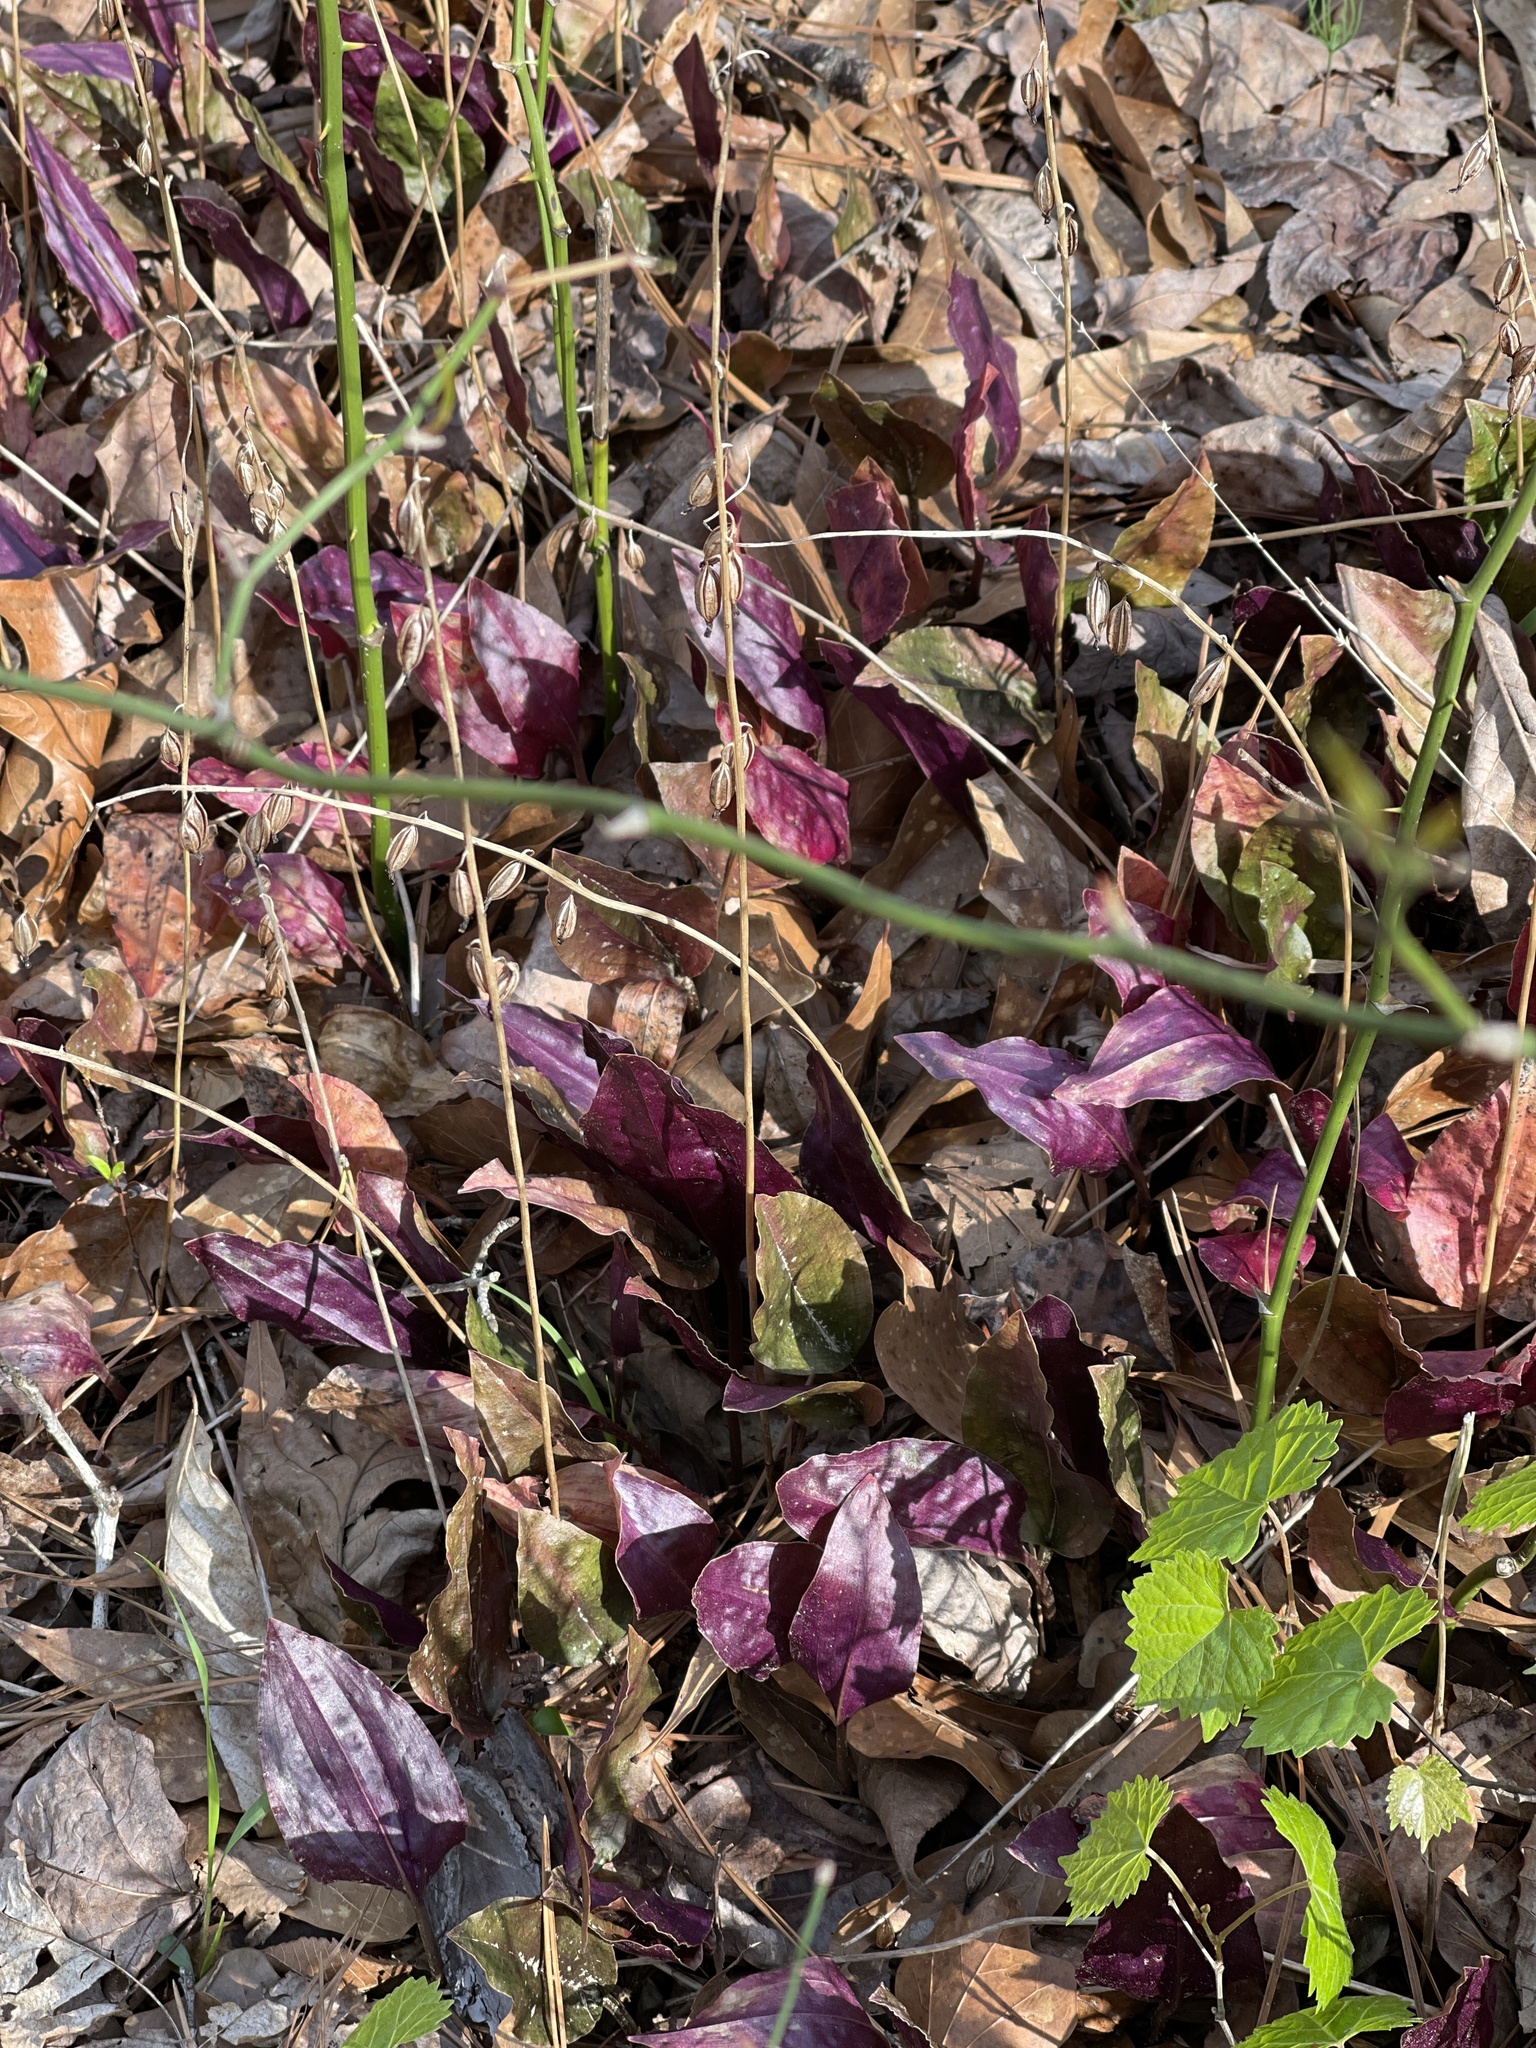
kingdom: Plantae
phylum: Tracheophyta
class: Liliopsida
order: Asparagales
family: Orchidaceae
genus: Tipularia
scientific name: Tipularia discolor
